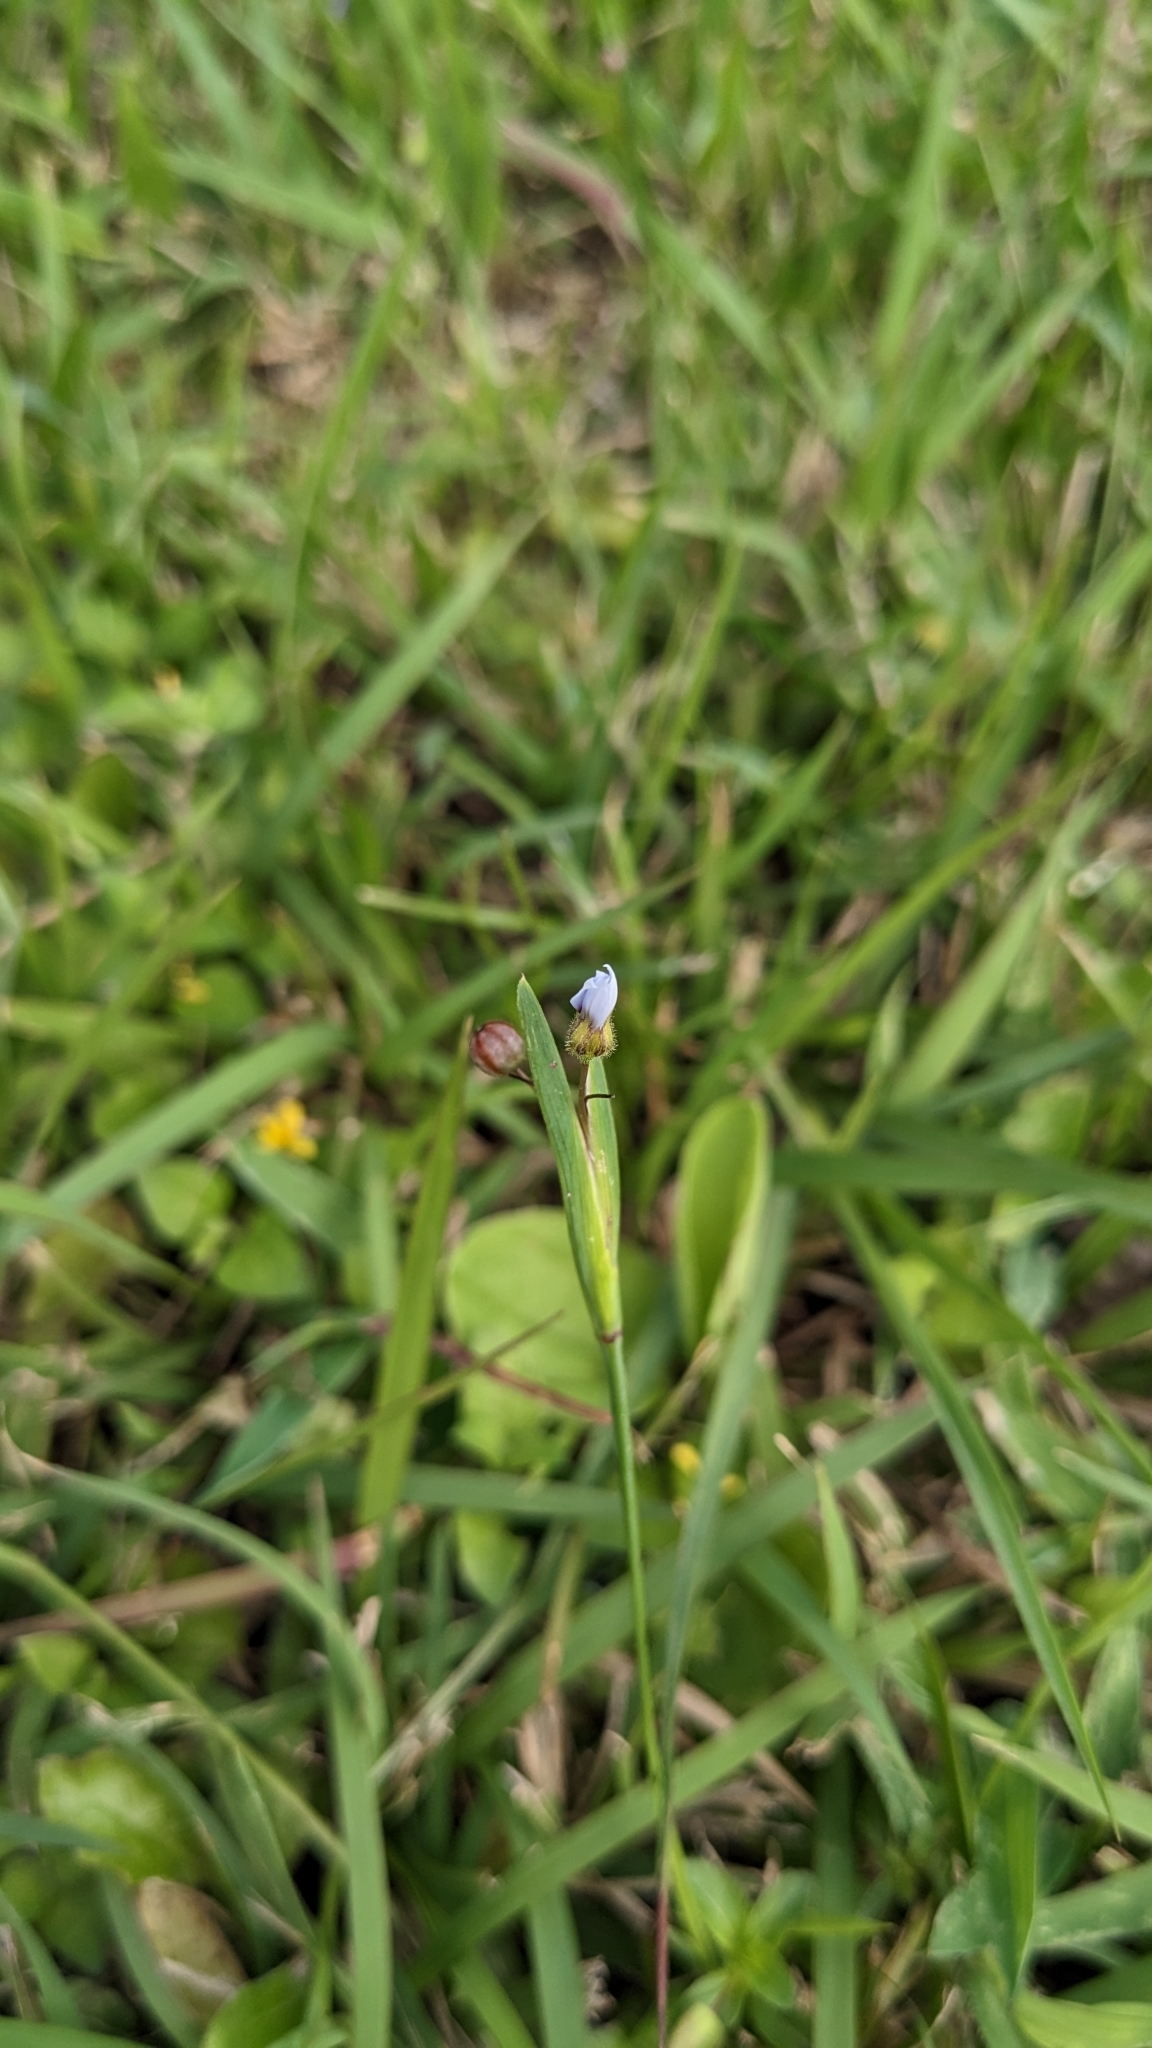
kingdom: Plantae
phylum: Tracheophyta
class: Liliopsida
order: Asparagales
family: Iridaceae
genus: Sisyrinchium
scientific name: Sisyrinchium micranthum
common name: Bermuda pigroot
